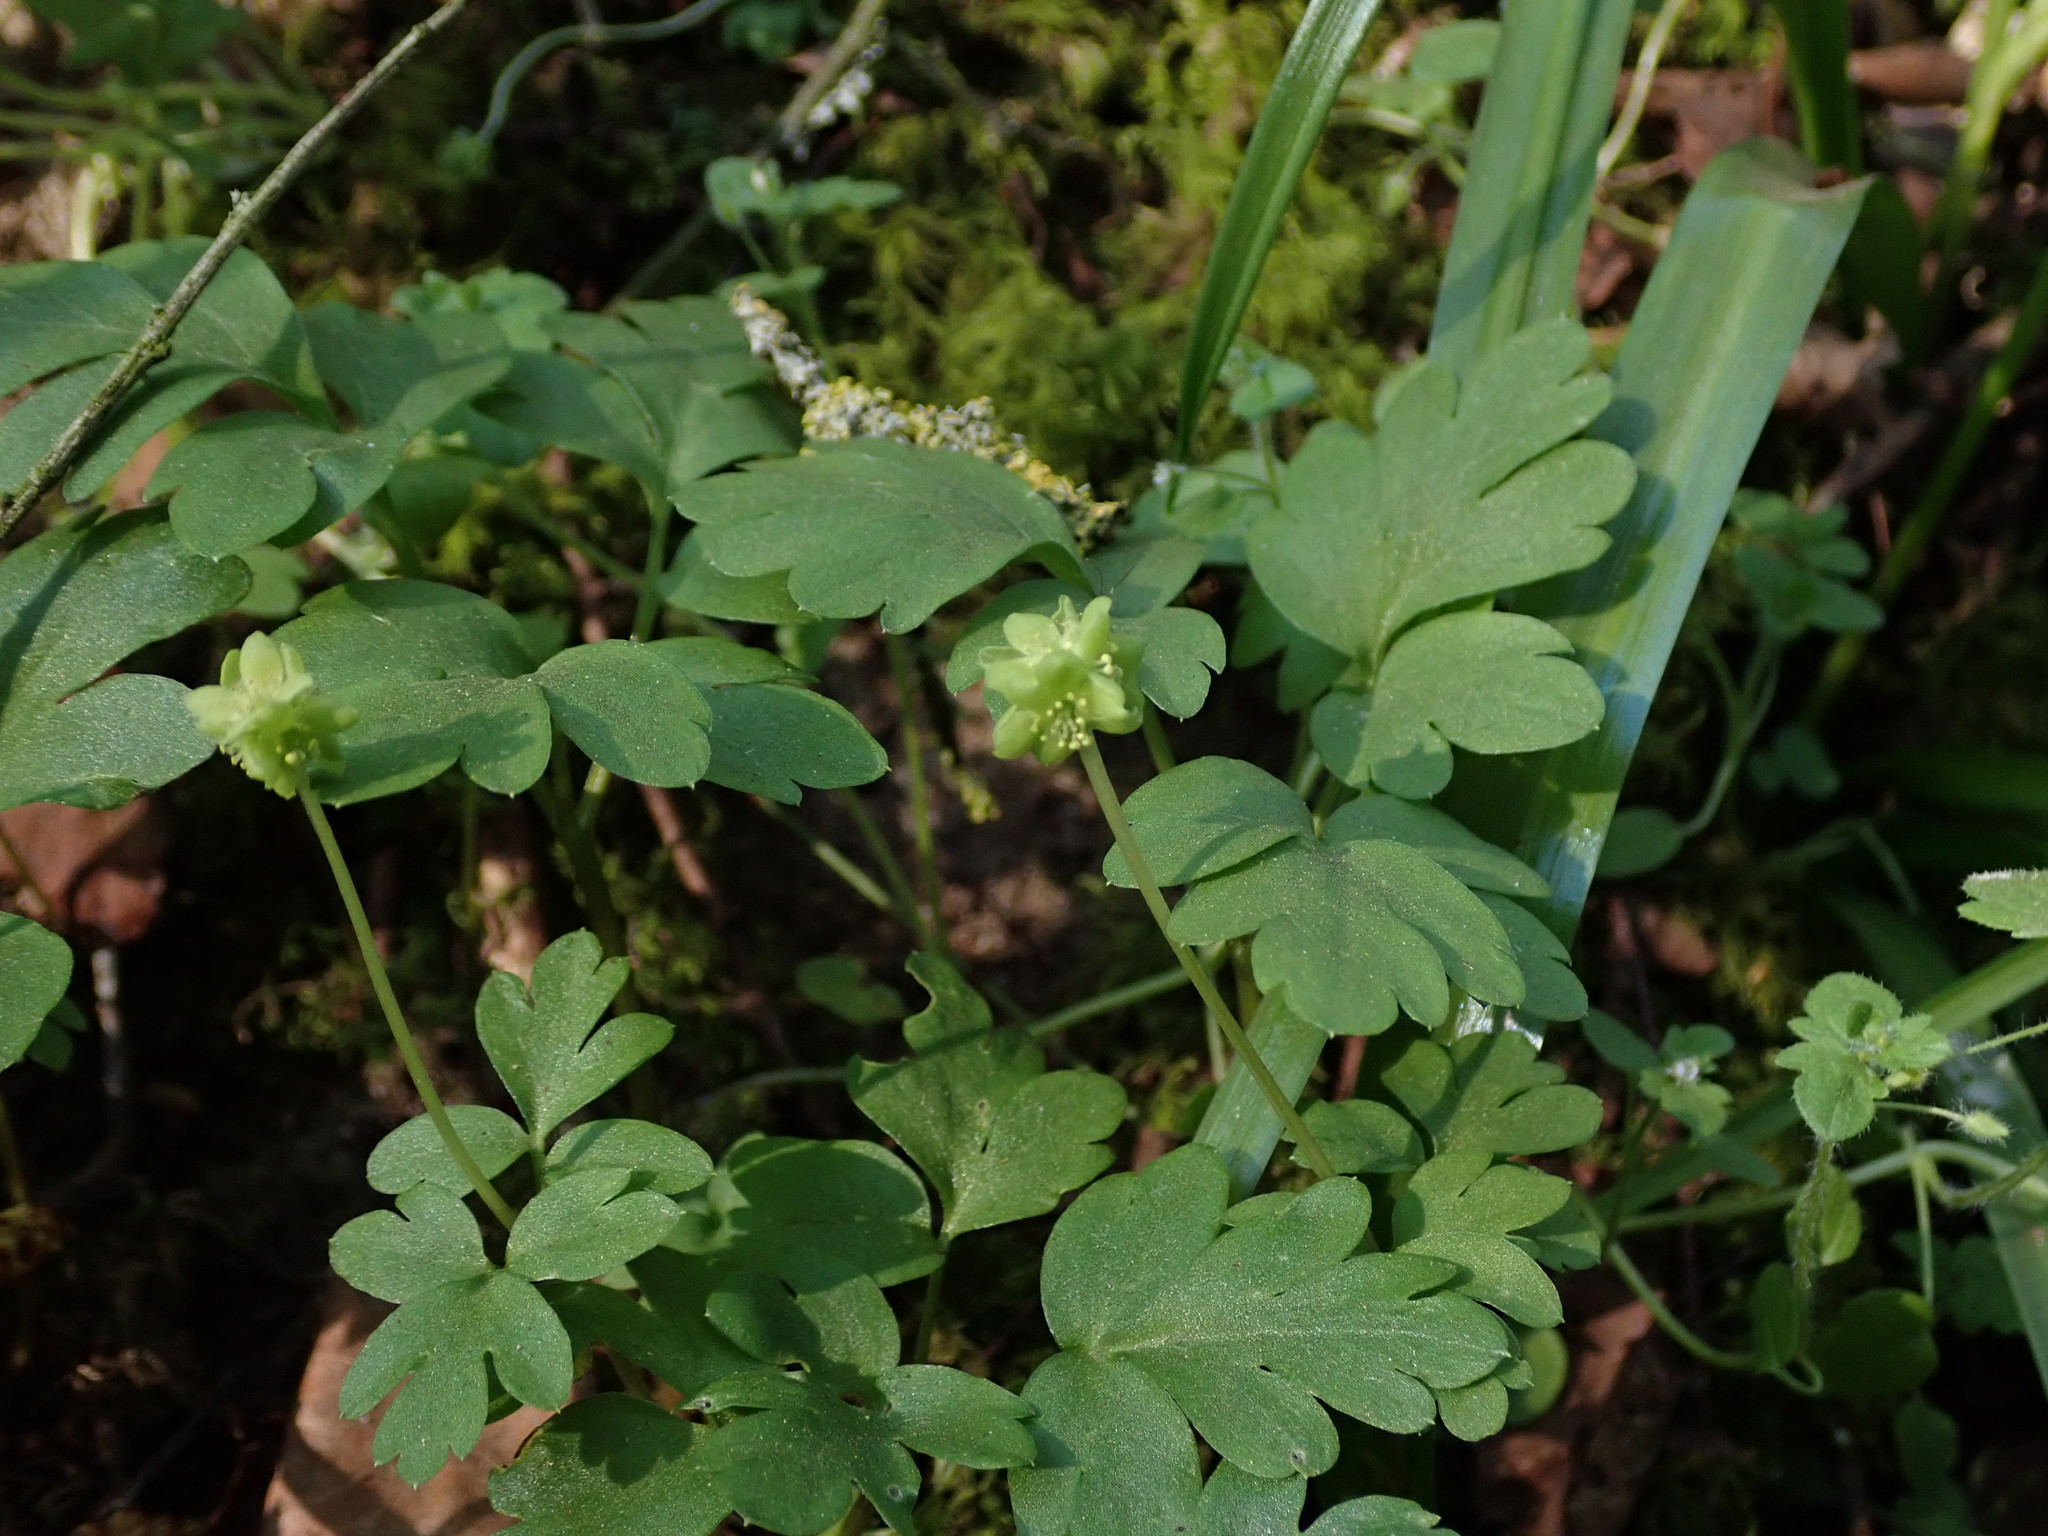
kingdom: Plantae
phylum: Tracheophyta
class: Magnoliopsida
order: Dipsacales
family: Viburnaceae
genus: Adoxa
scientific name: Adoxa moschatellina
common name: Moschatel
